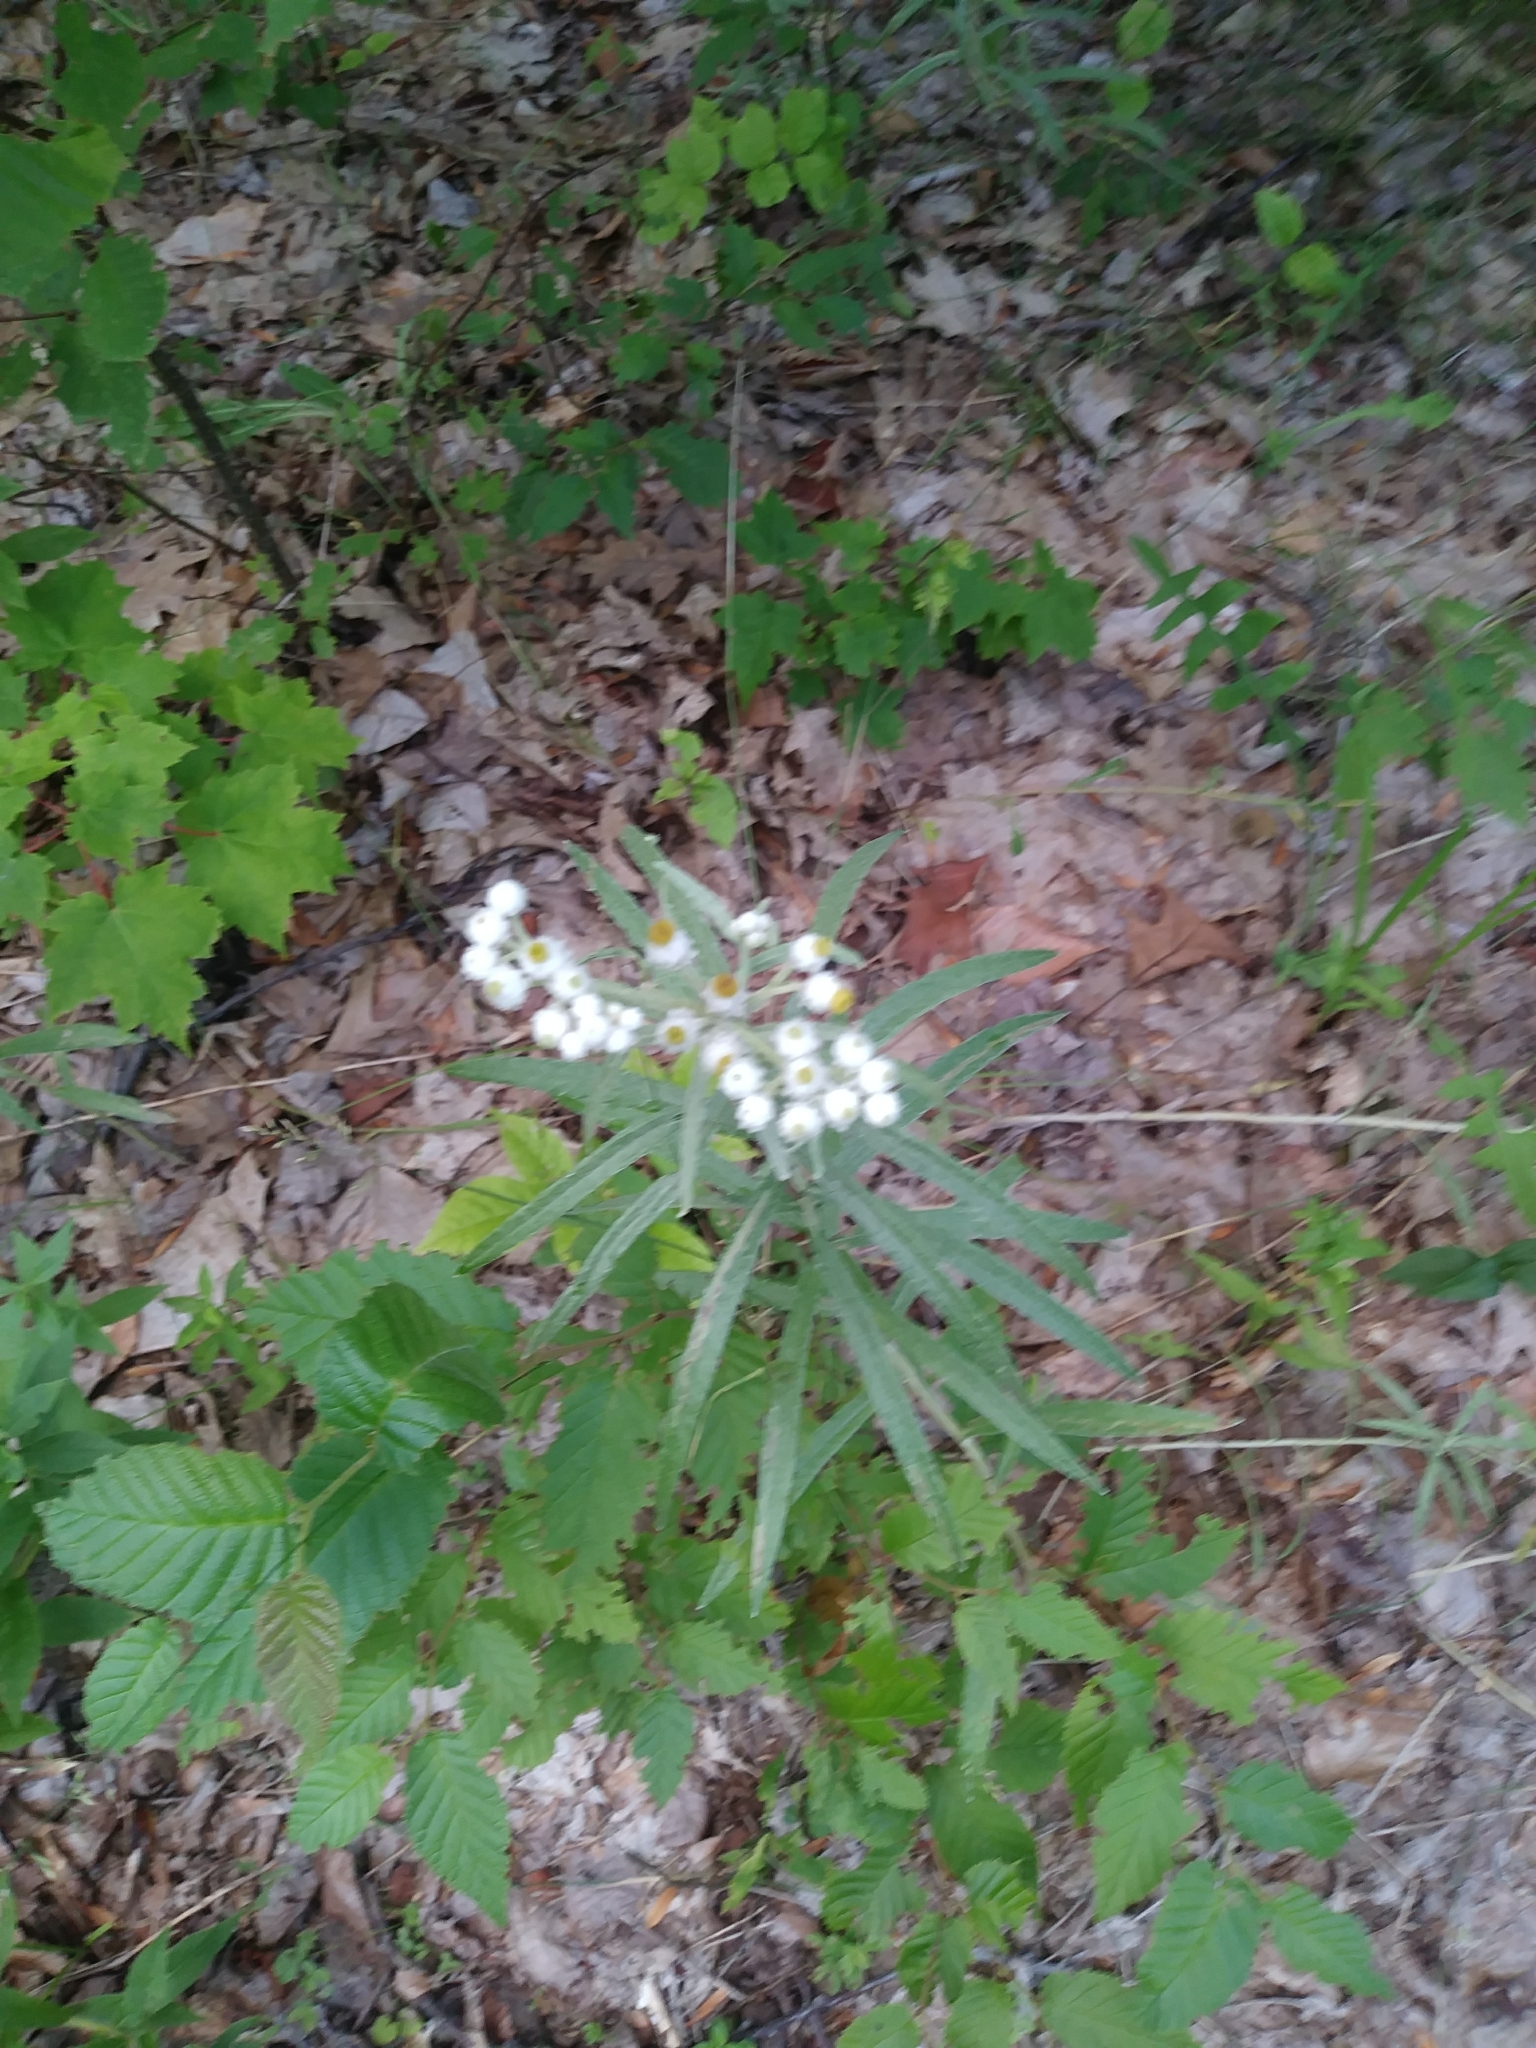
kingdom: Plantae
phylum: Tracheophyta
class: Magnoliopsida
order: Asterales
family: Asteraceae
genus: Anaphalis
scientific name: Anaphalis margaritacea
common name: Pearly everlasting
